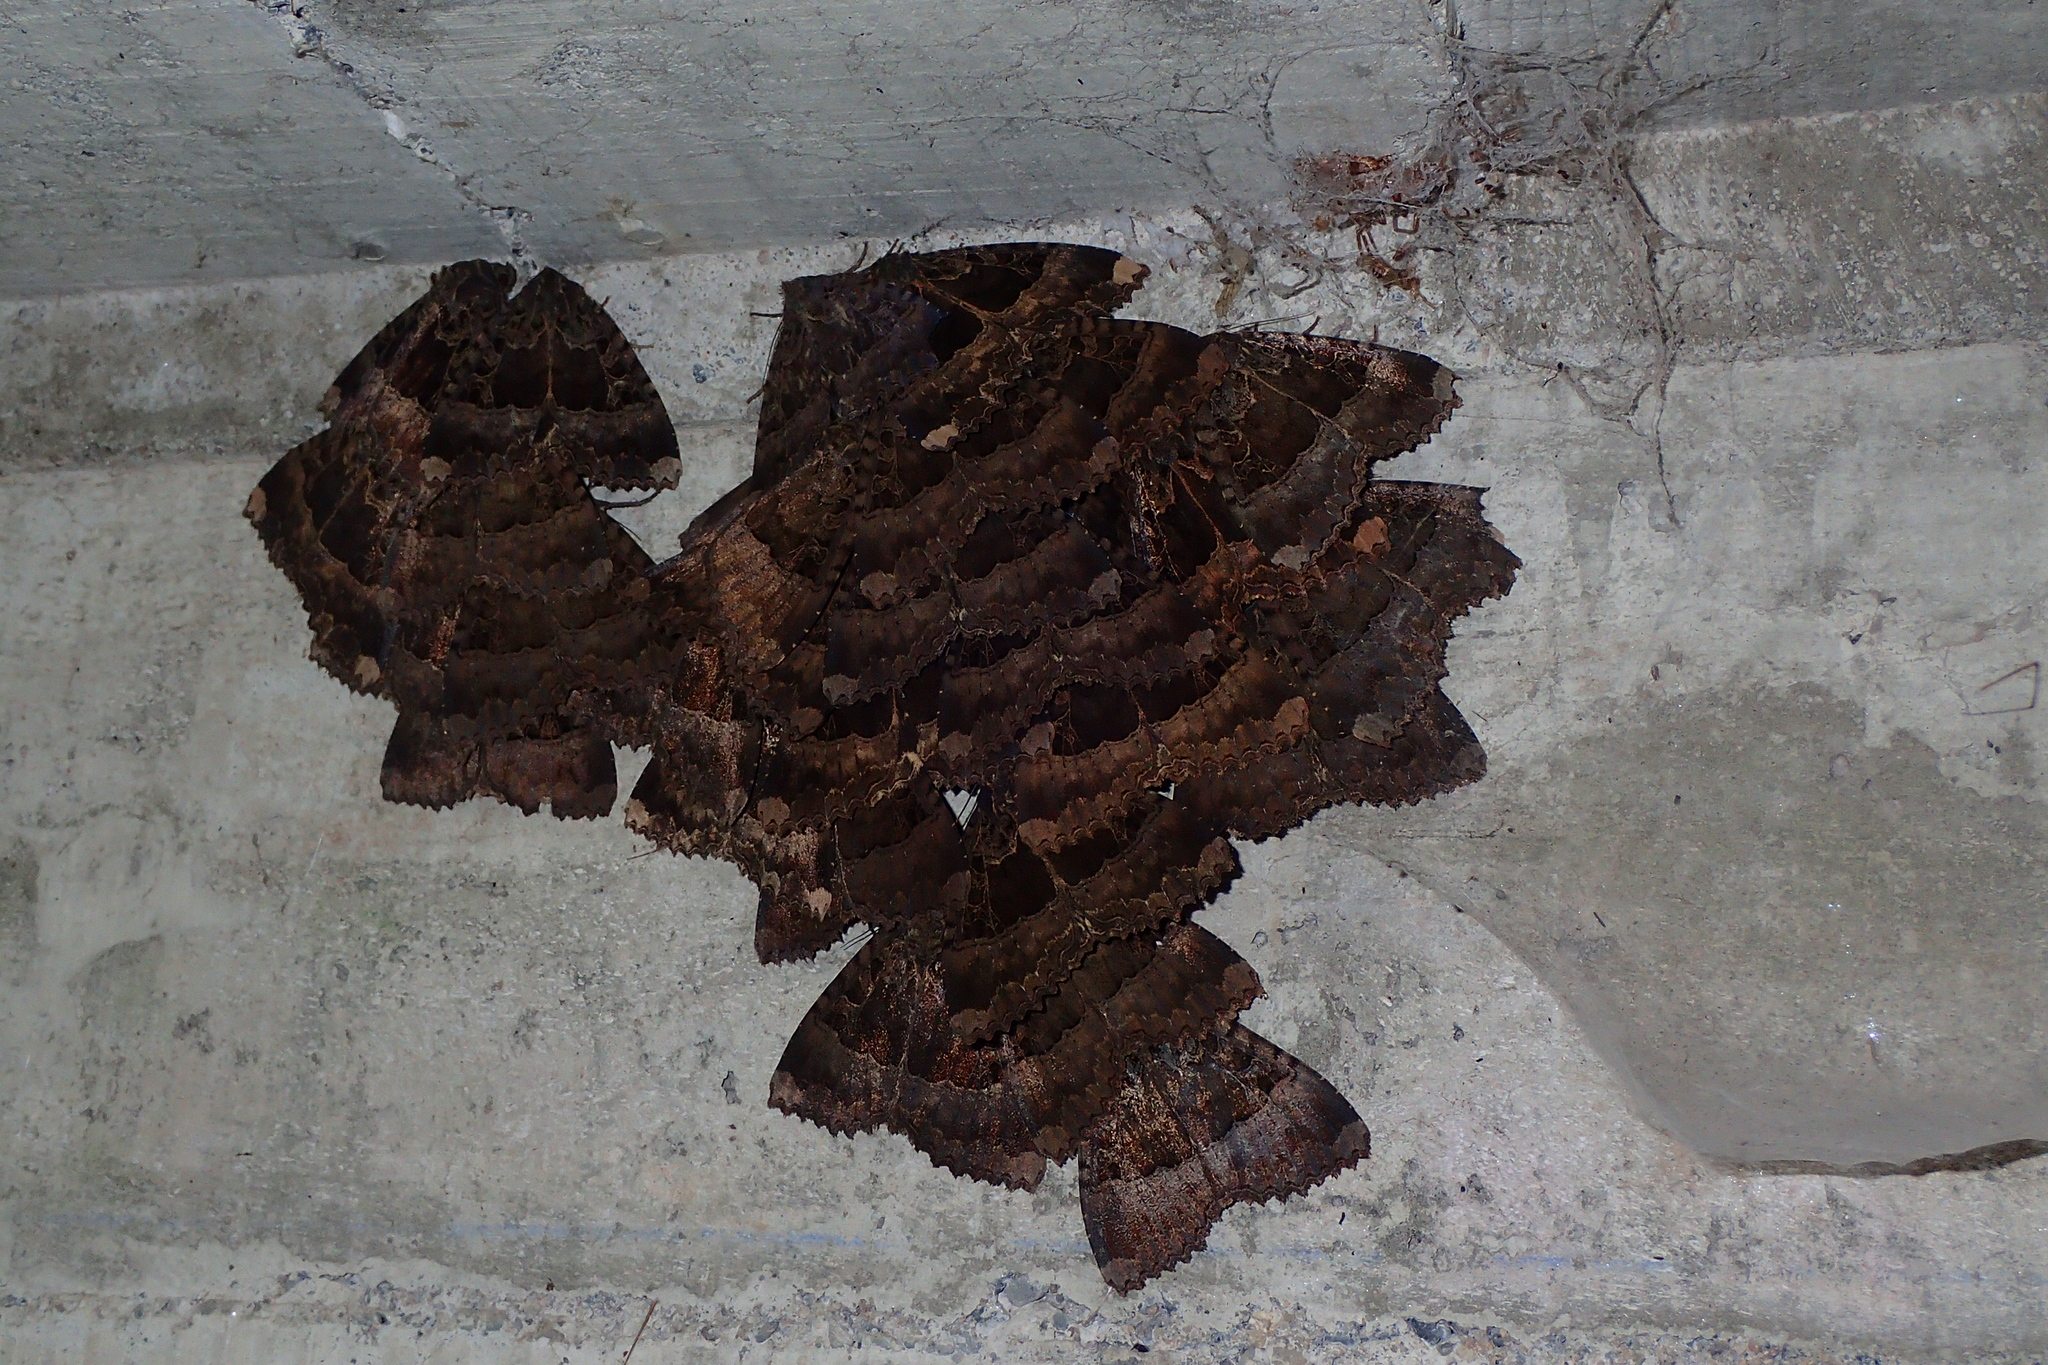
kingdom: Animalia
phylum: Arthropoda
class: Insecta
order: Lepidoptera
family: Noctuidae
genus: Mormo
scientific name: Mormo maura
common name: Old lady
